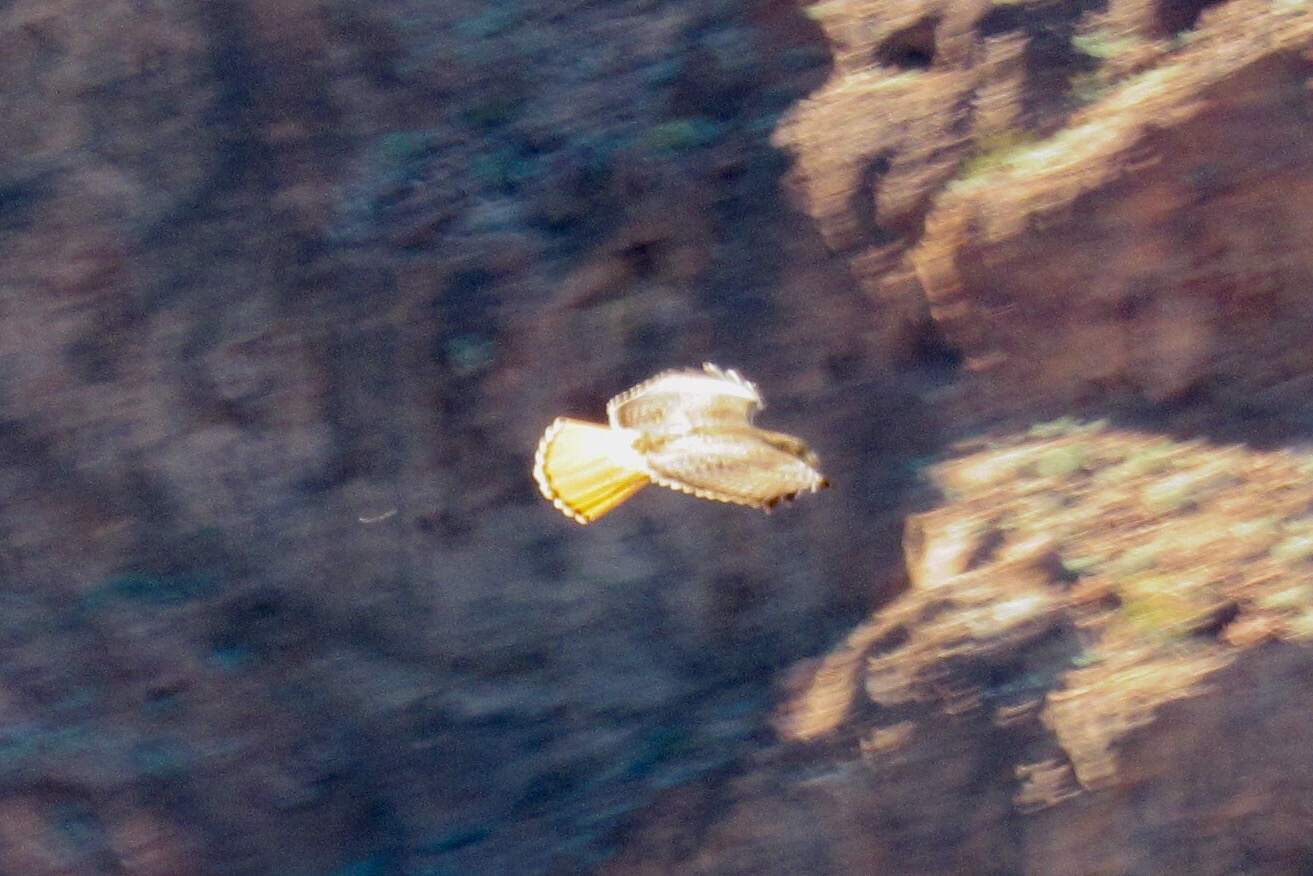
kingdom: Animalia
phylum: Chordata
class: Aves
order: Accipitriformes
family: Accipitridae
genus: Buteo
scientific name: Buteo jamaicensis
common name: Red-tailed hawk
